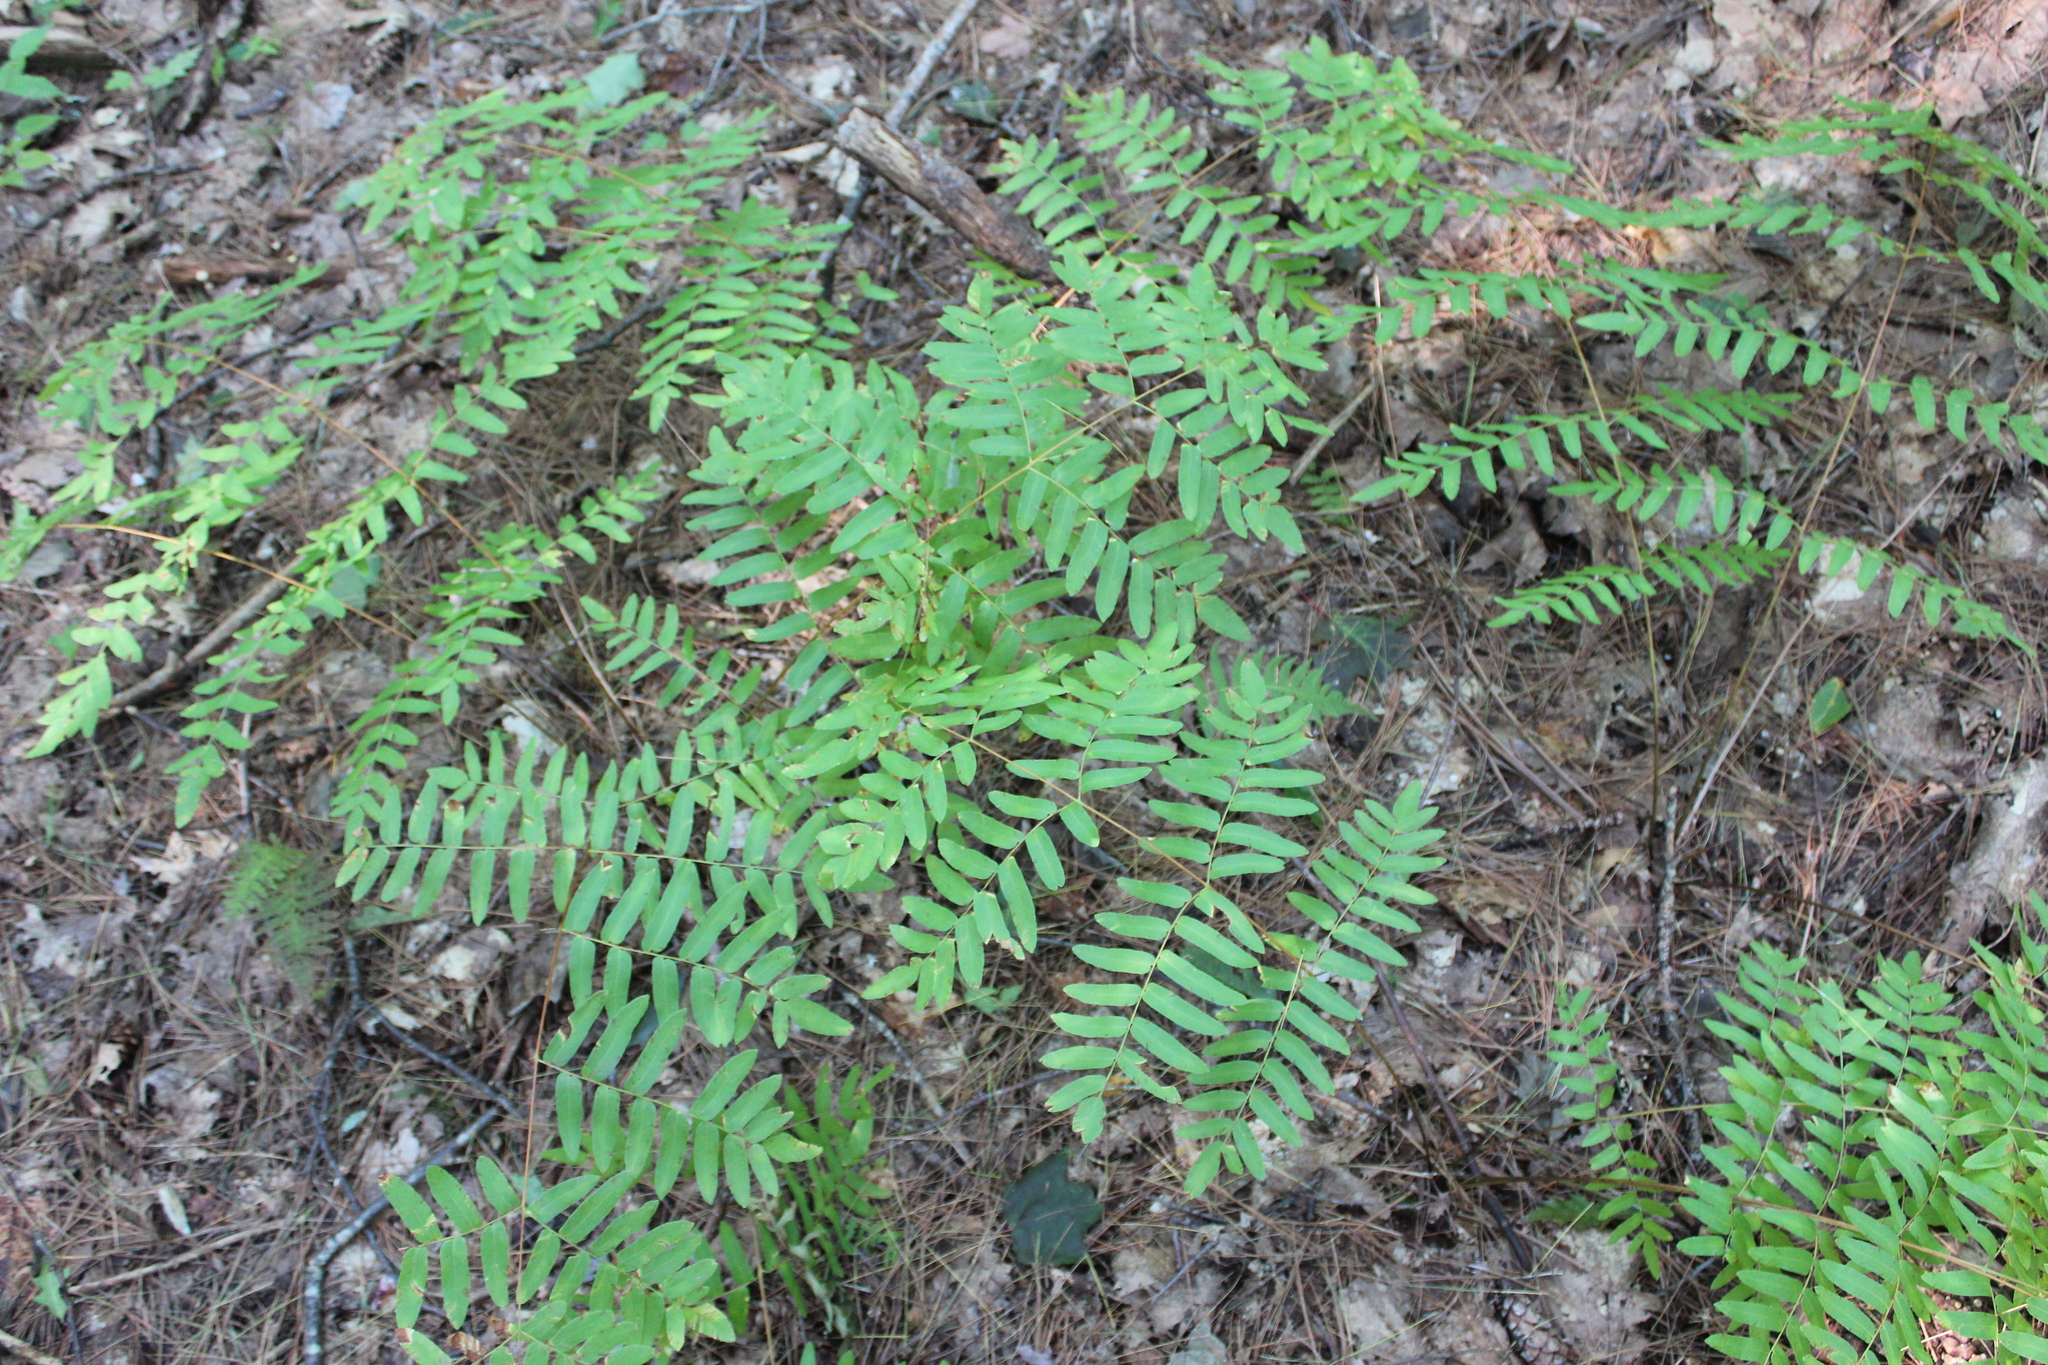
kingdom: Plantae
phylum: Tracheophyta
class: Polypodiopsida
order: Osmundales
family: Osmundaceae
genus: Osmunda
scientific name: Osmunda spectabilis
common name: American royal fern
